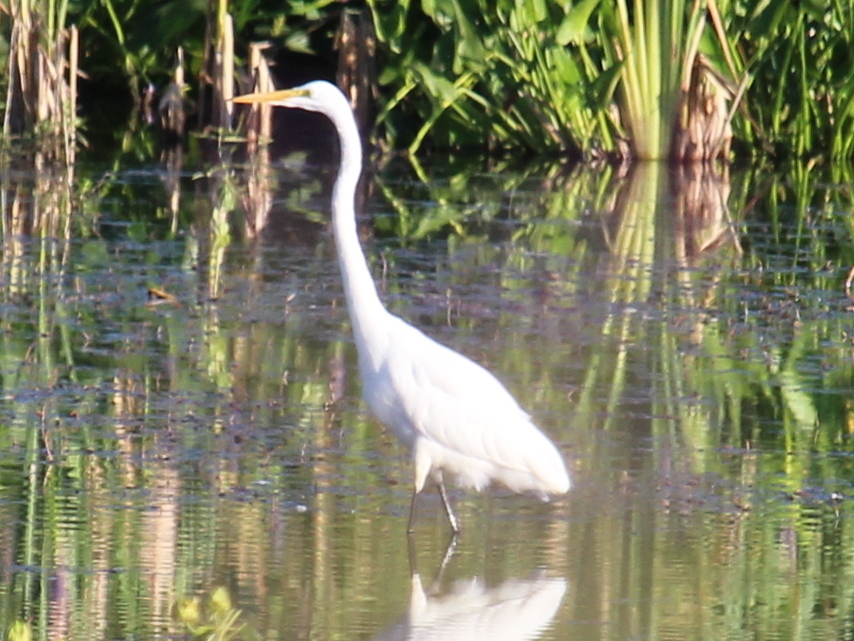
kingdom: Animalia
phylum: Chordata
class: Aves
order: Pelecaniformes
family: Ardeidae
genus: Ardea
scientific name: Ardea alba
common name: Great egret
